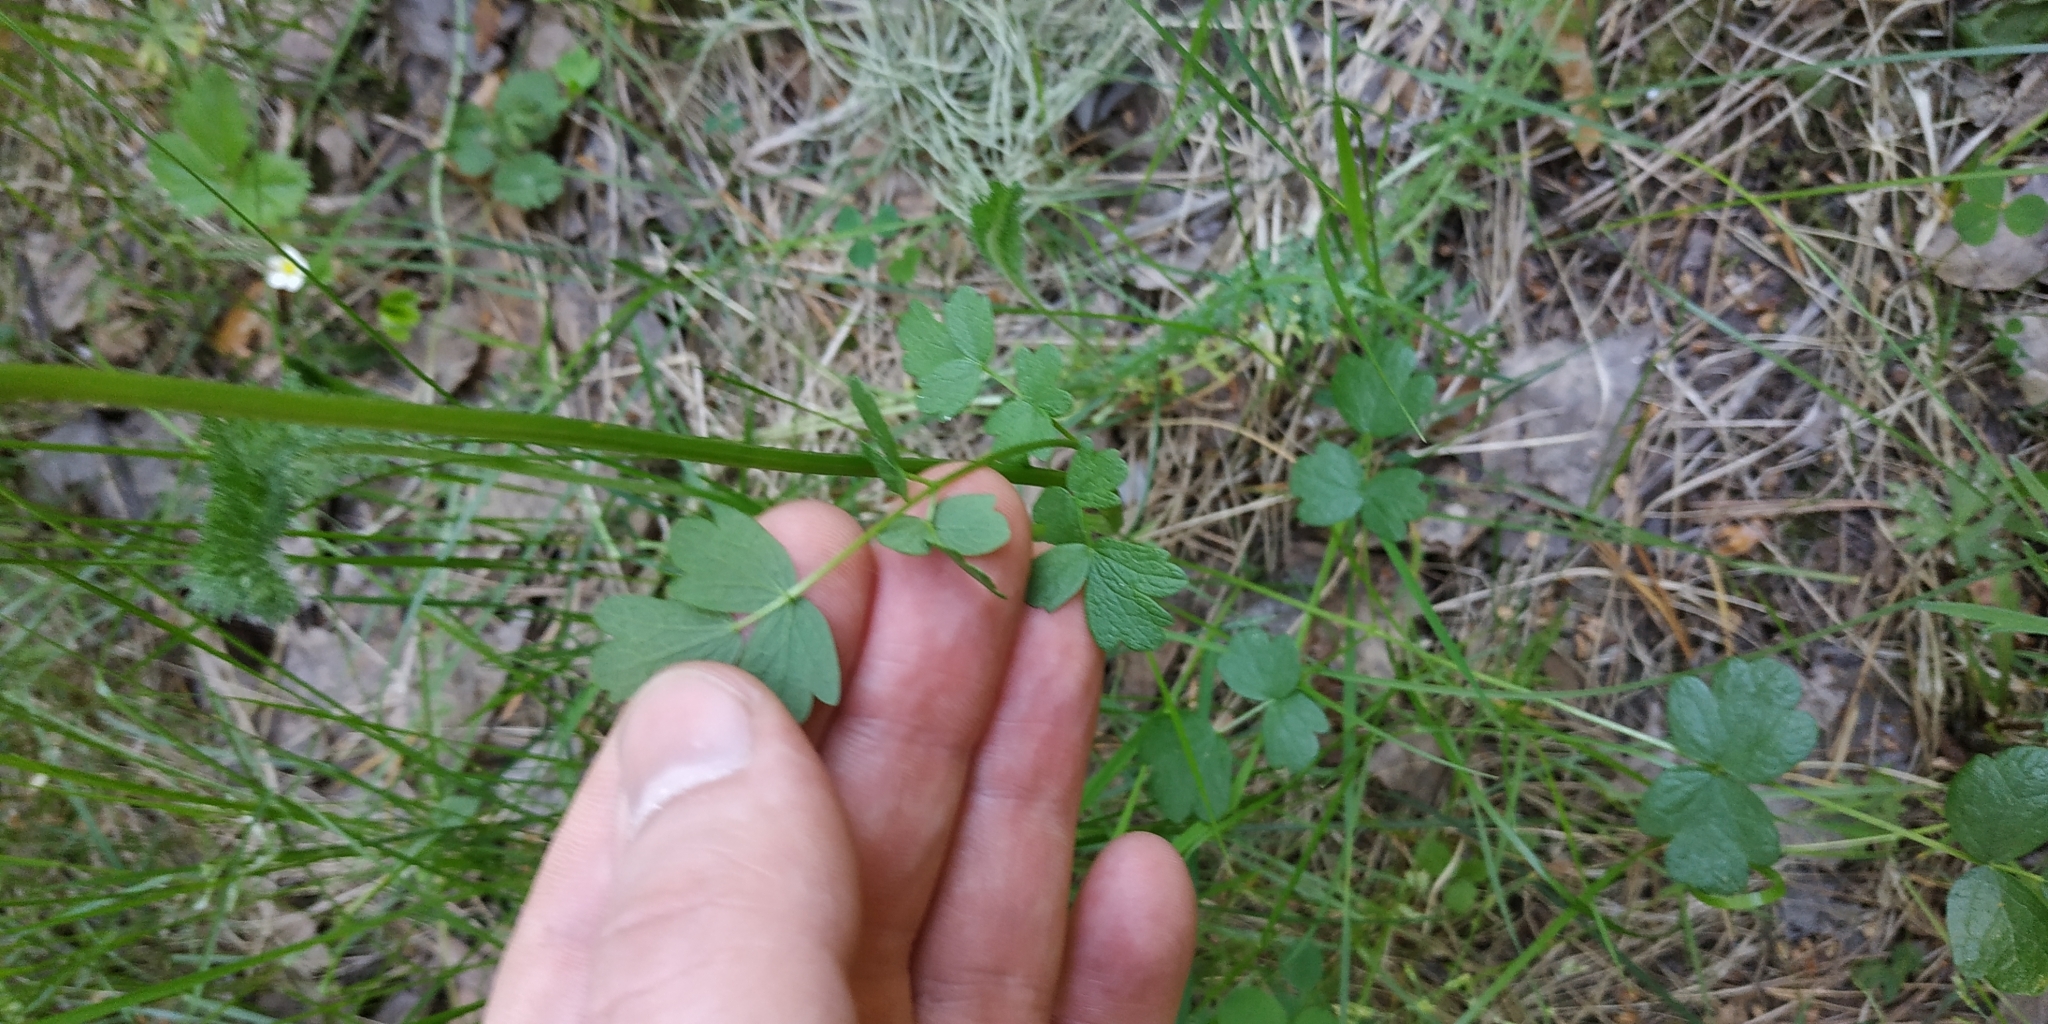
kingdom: Plantae
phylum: Tracheophyta
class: Magnoliopsida
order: Ranunculales
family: Ranunculaceae
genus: Thalictrum
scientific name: Thalictrum minus
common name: Lesser meadow-rue
